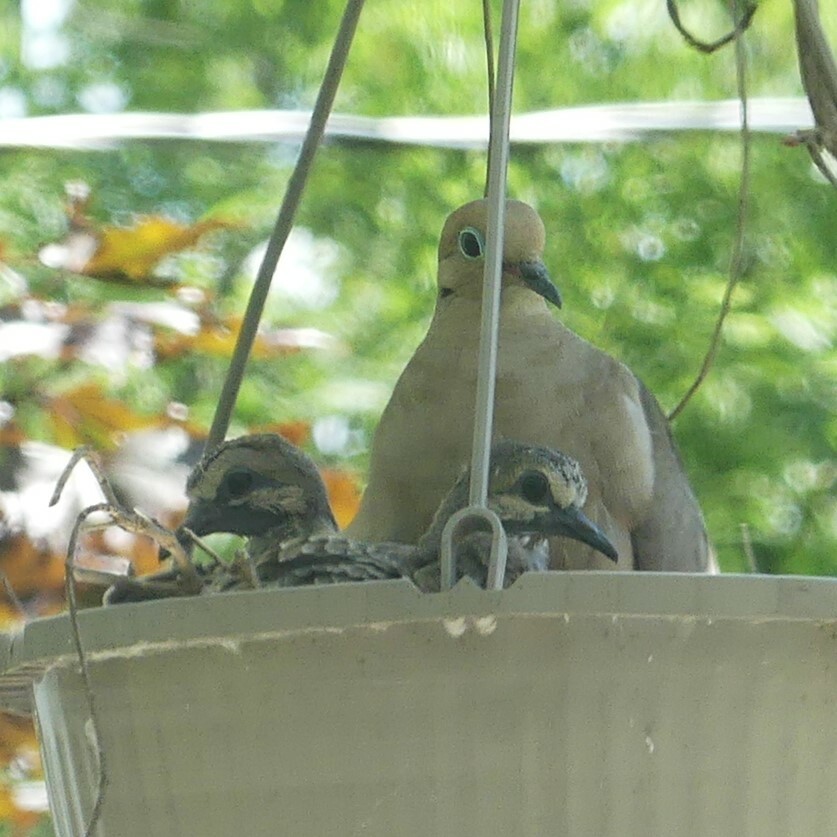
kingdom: Animalia
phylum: Chordata
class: Aves
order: Columbiformes
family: Columbidae
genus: Zenaida
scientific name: Zenaida macroura
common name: Mourning dove
